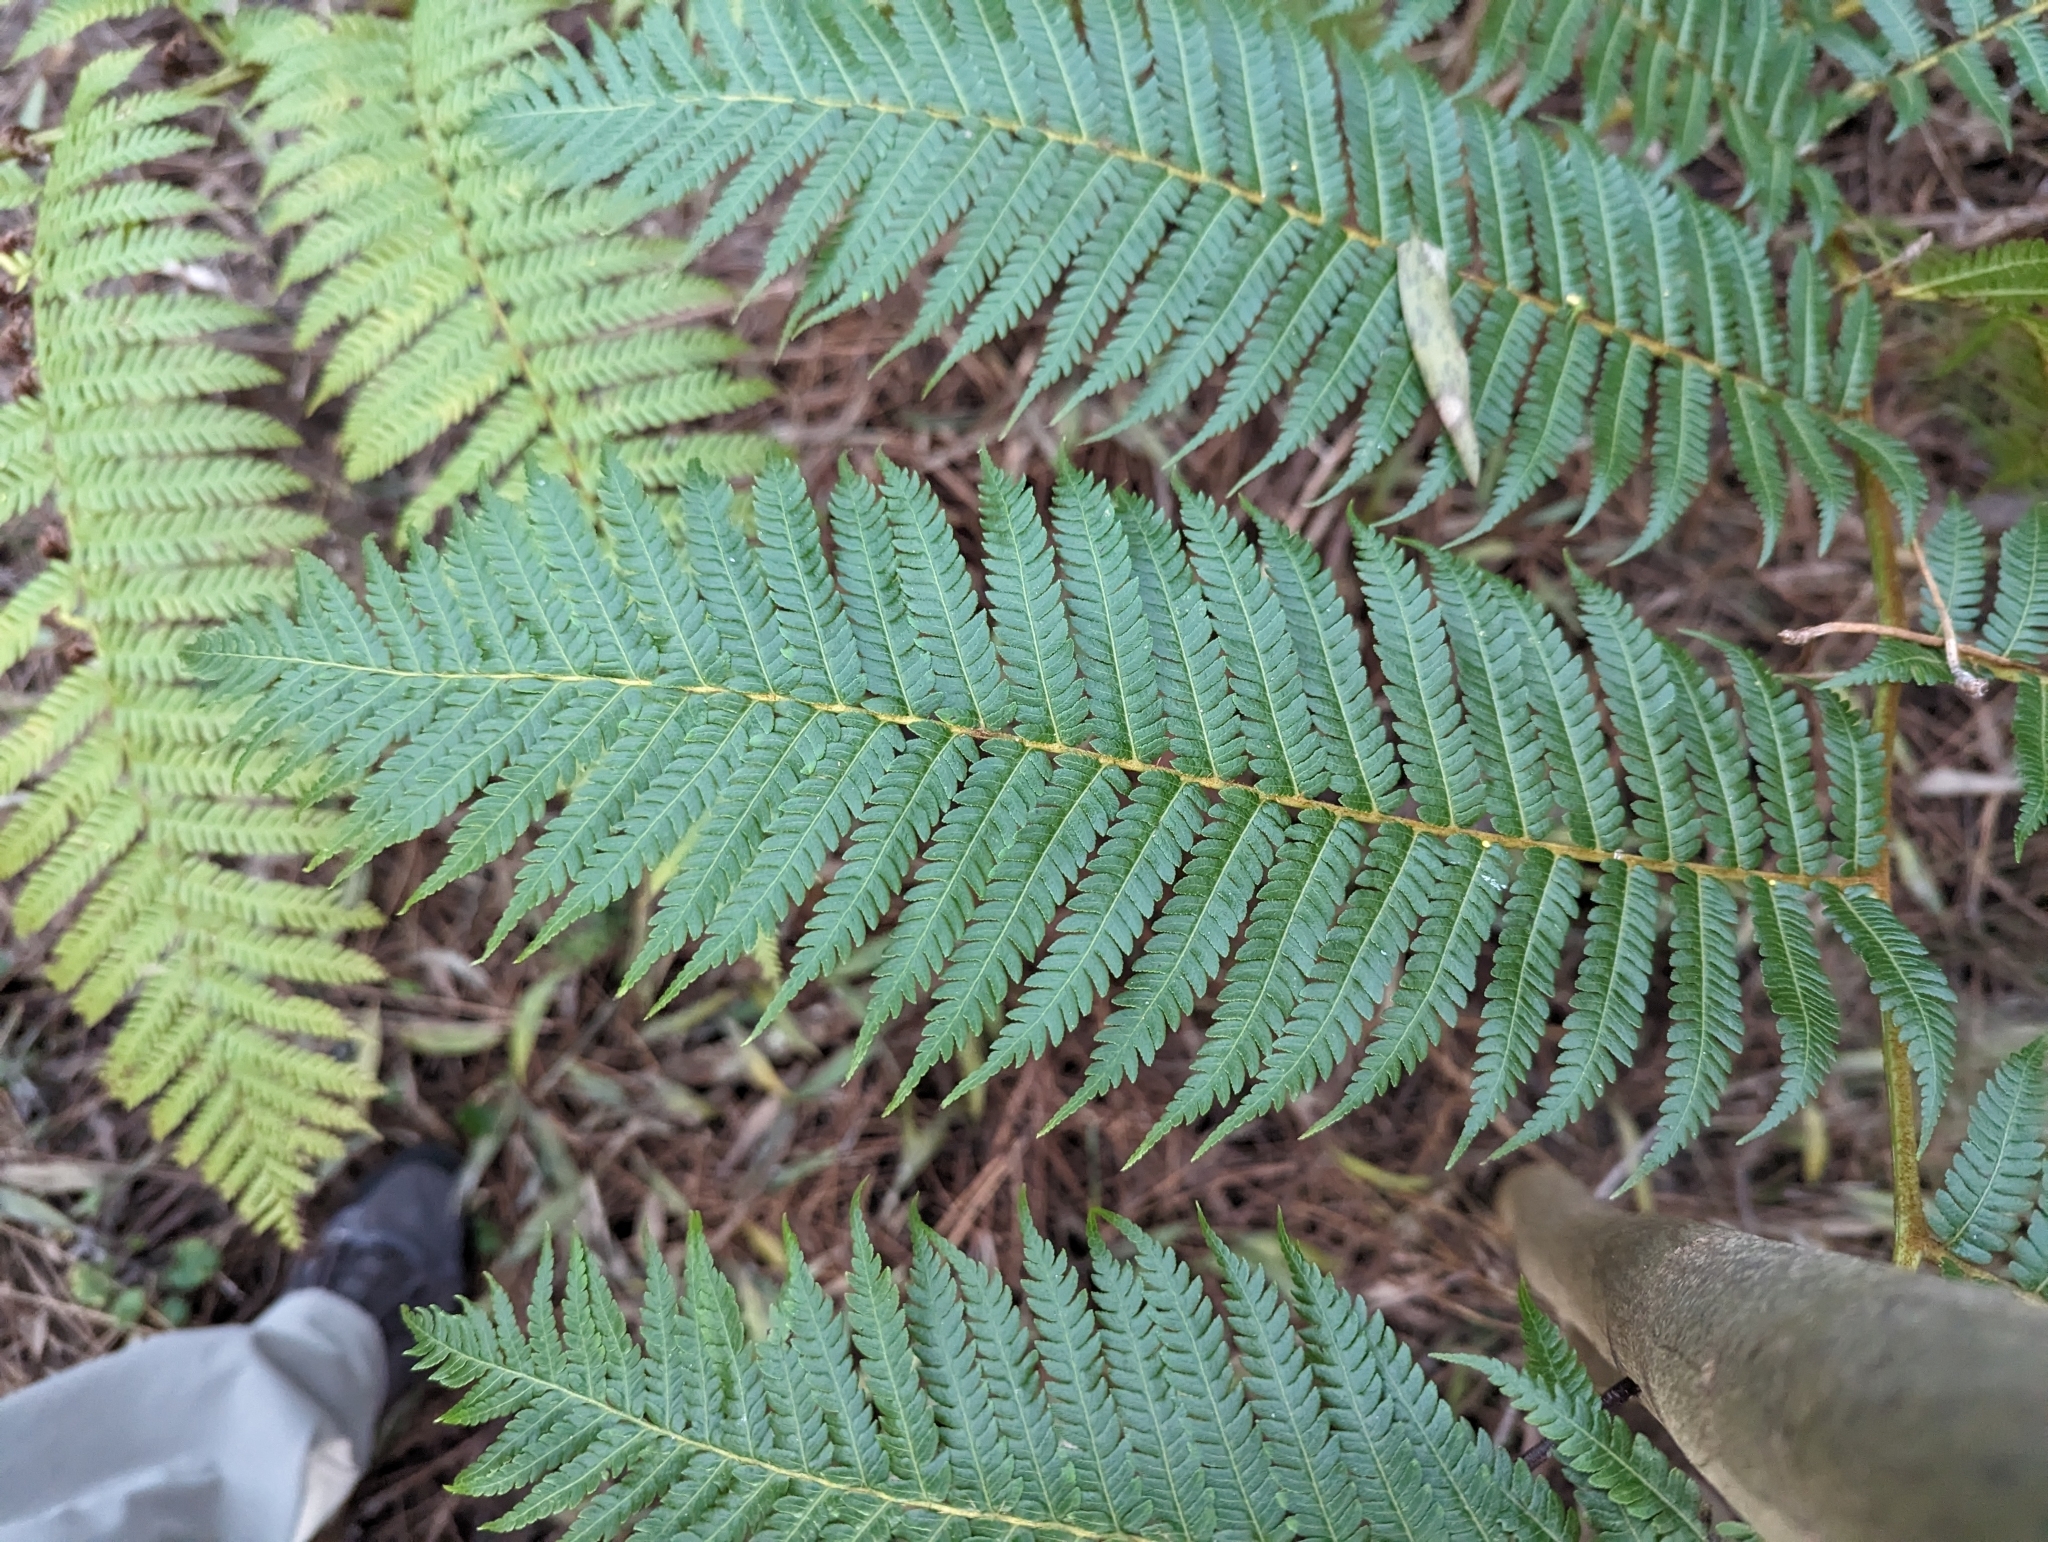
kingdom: Plantae
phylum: Tracheophyta
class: Polypodiopsida
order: Cyatheales
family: Cyatheaceae
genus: Sphaeropteris
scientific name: Sphaeropteris cooperi
